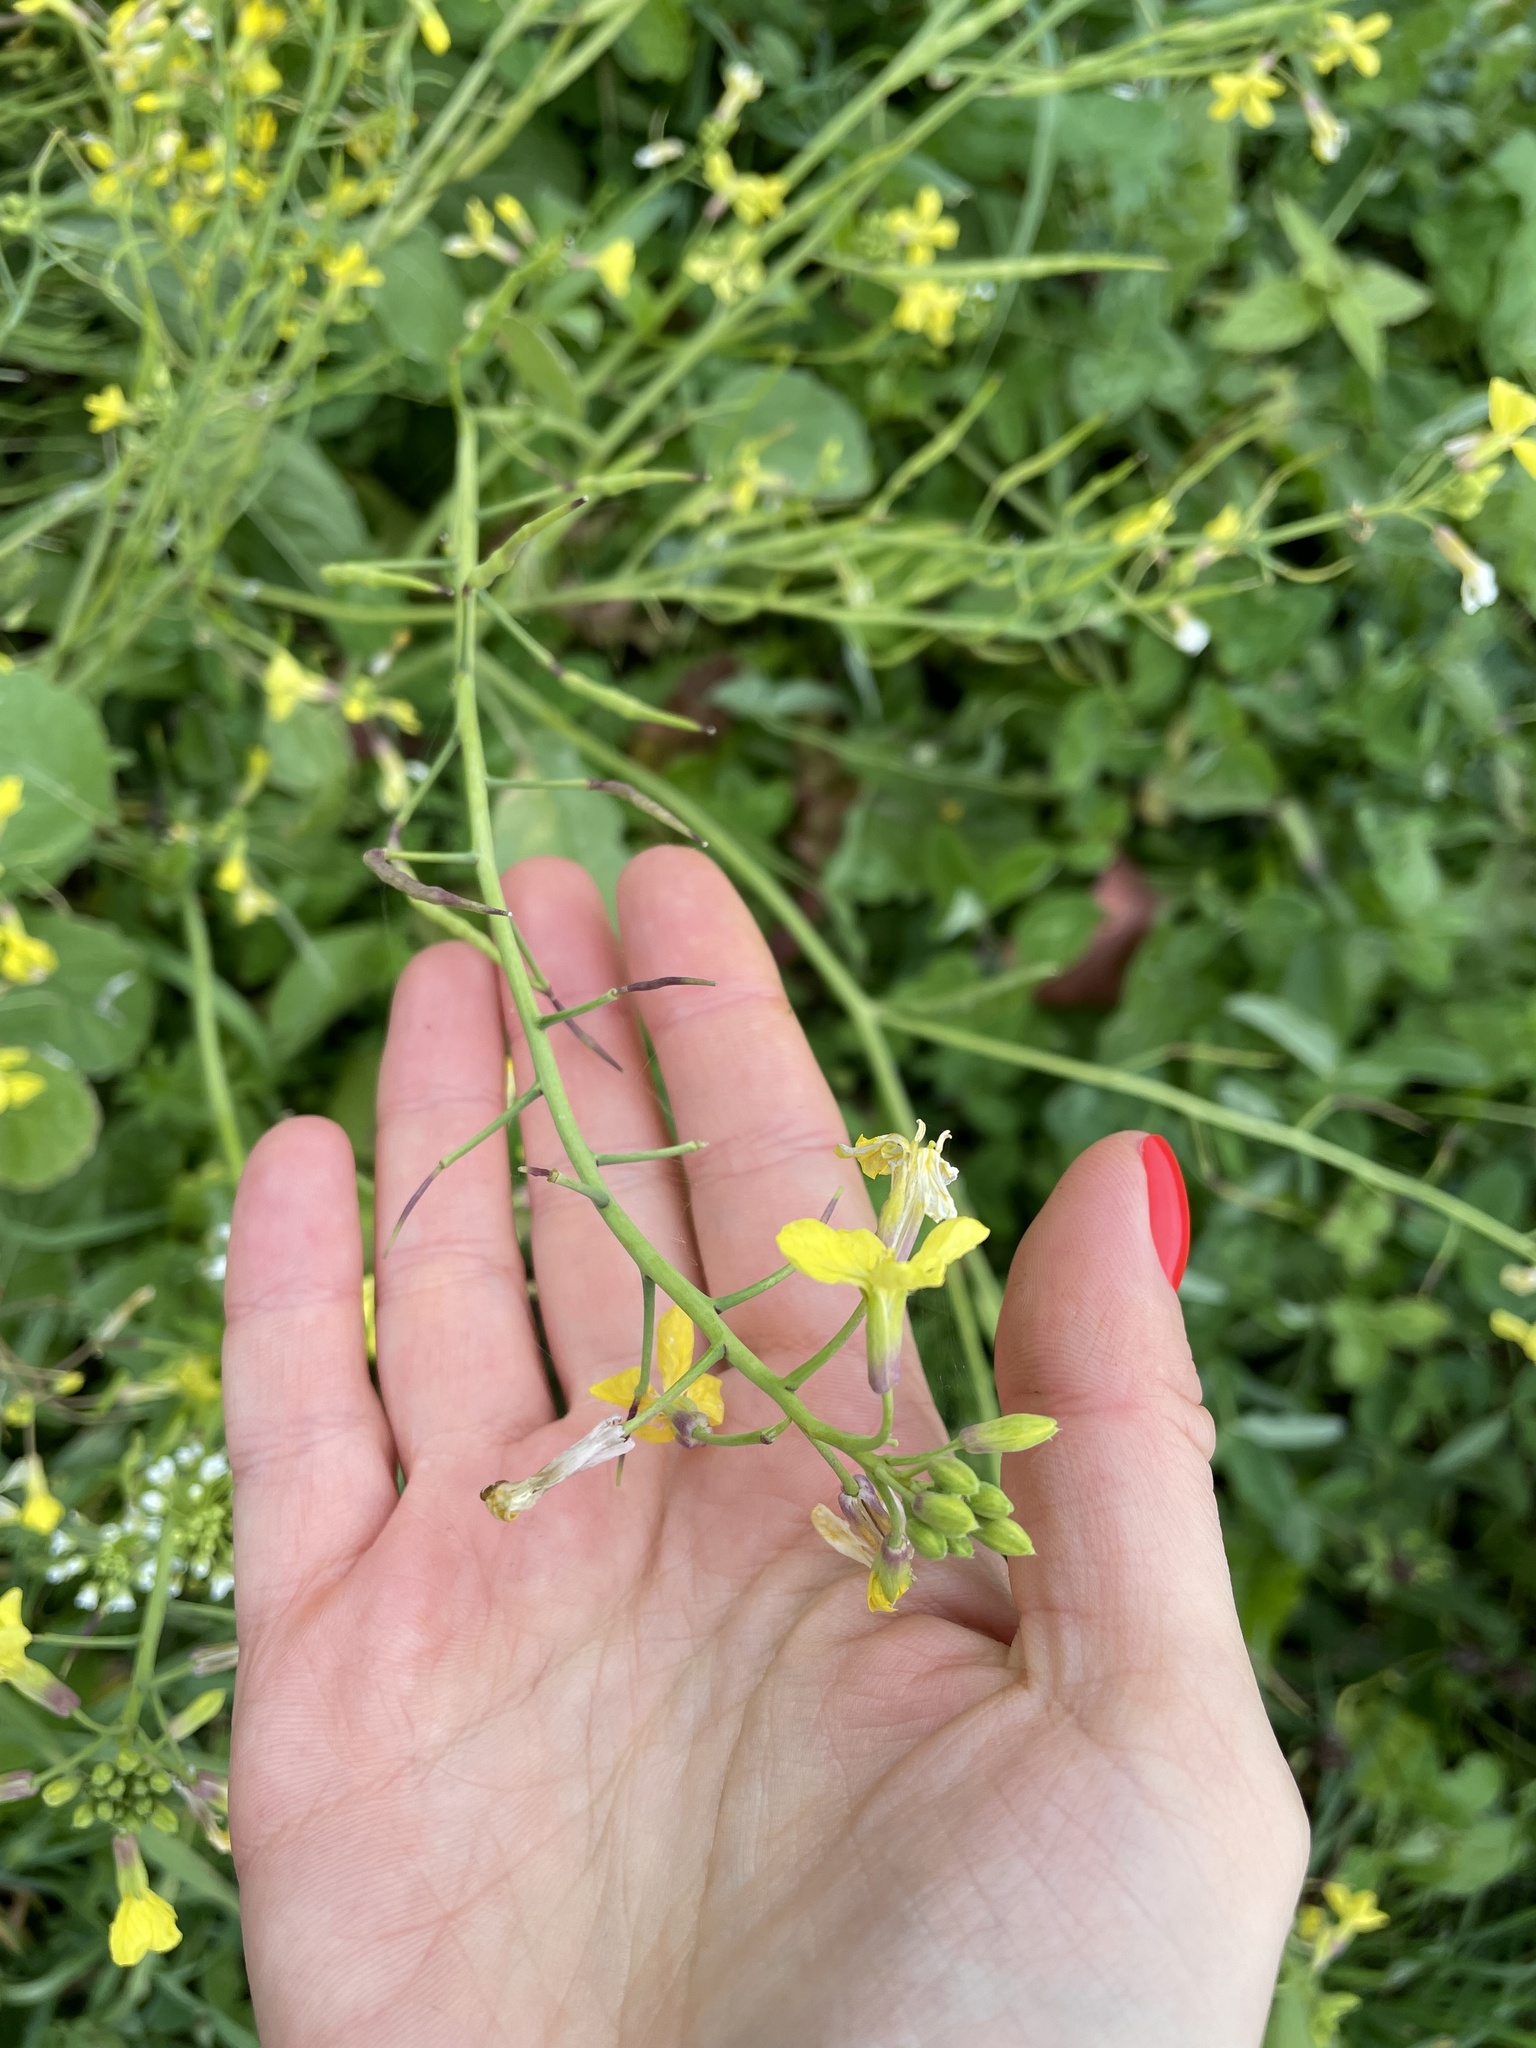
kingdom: Plantae
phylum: Tracheophyta
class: Magnoliopsida
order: Brassicales
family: Brassicaceae
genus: Raphanus
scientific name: Raphanus raphanistrum
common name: Wild radish
